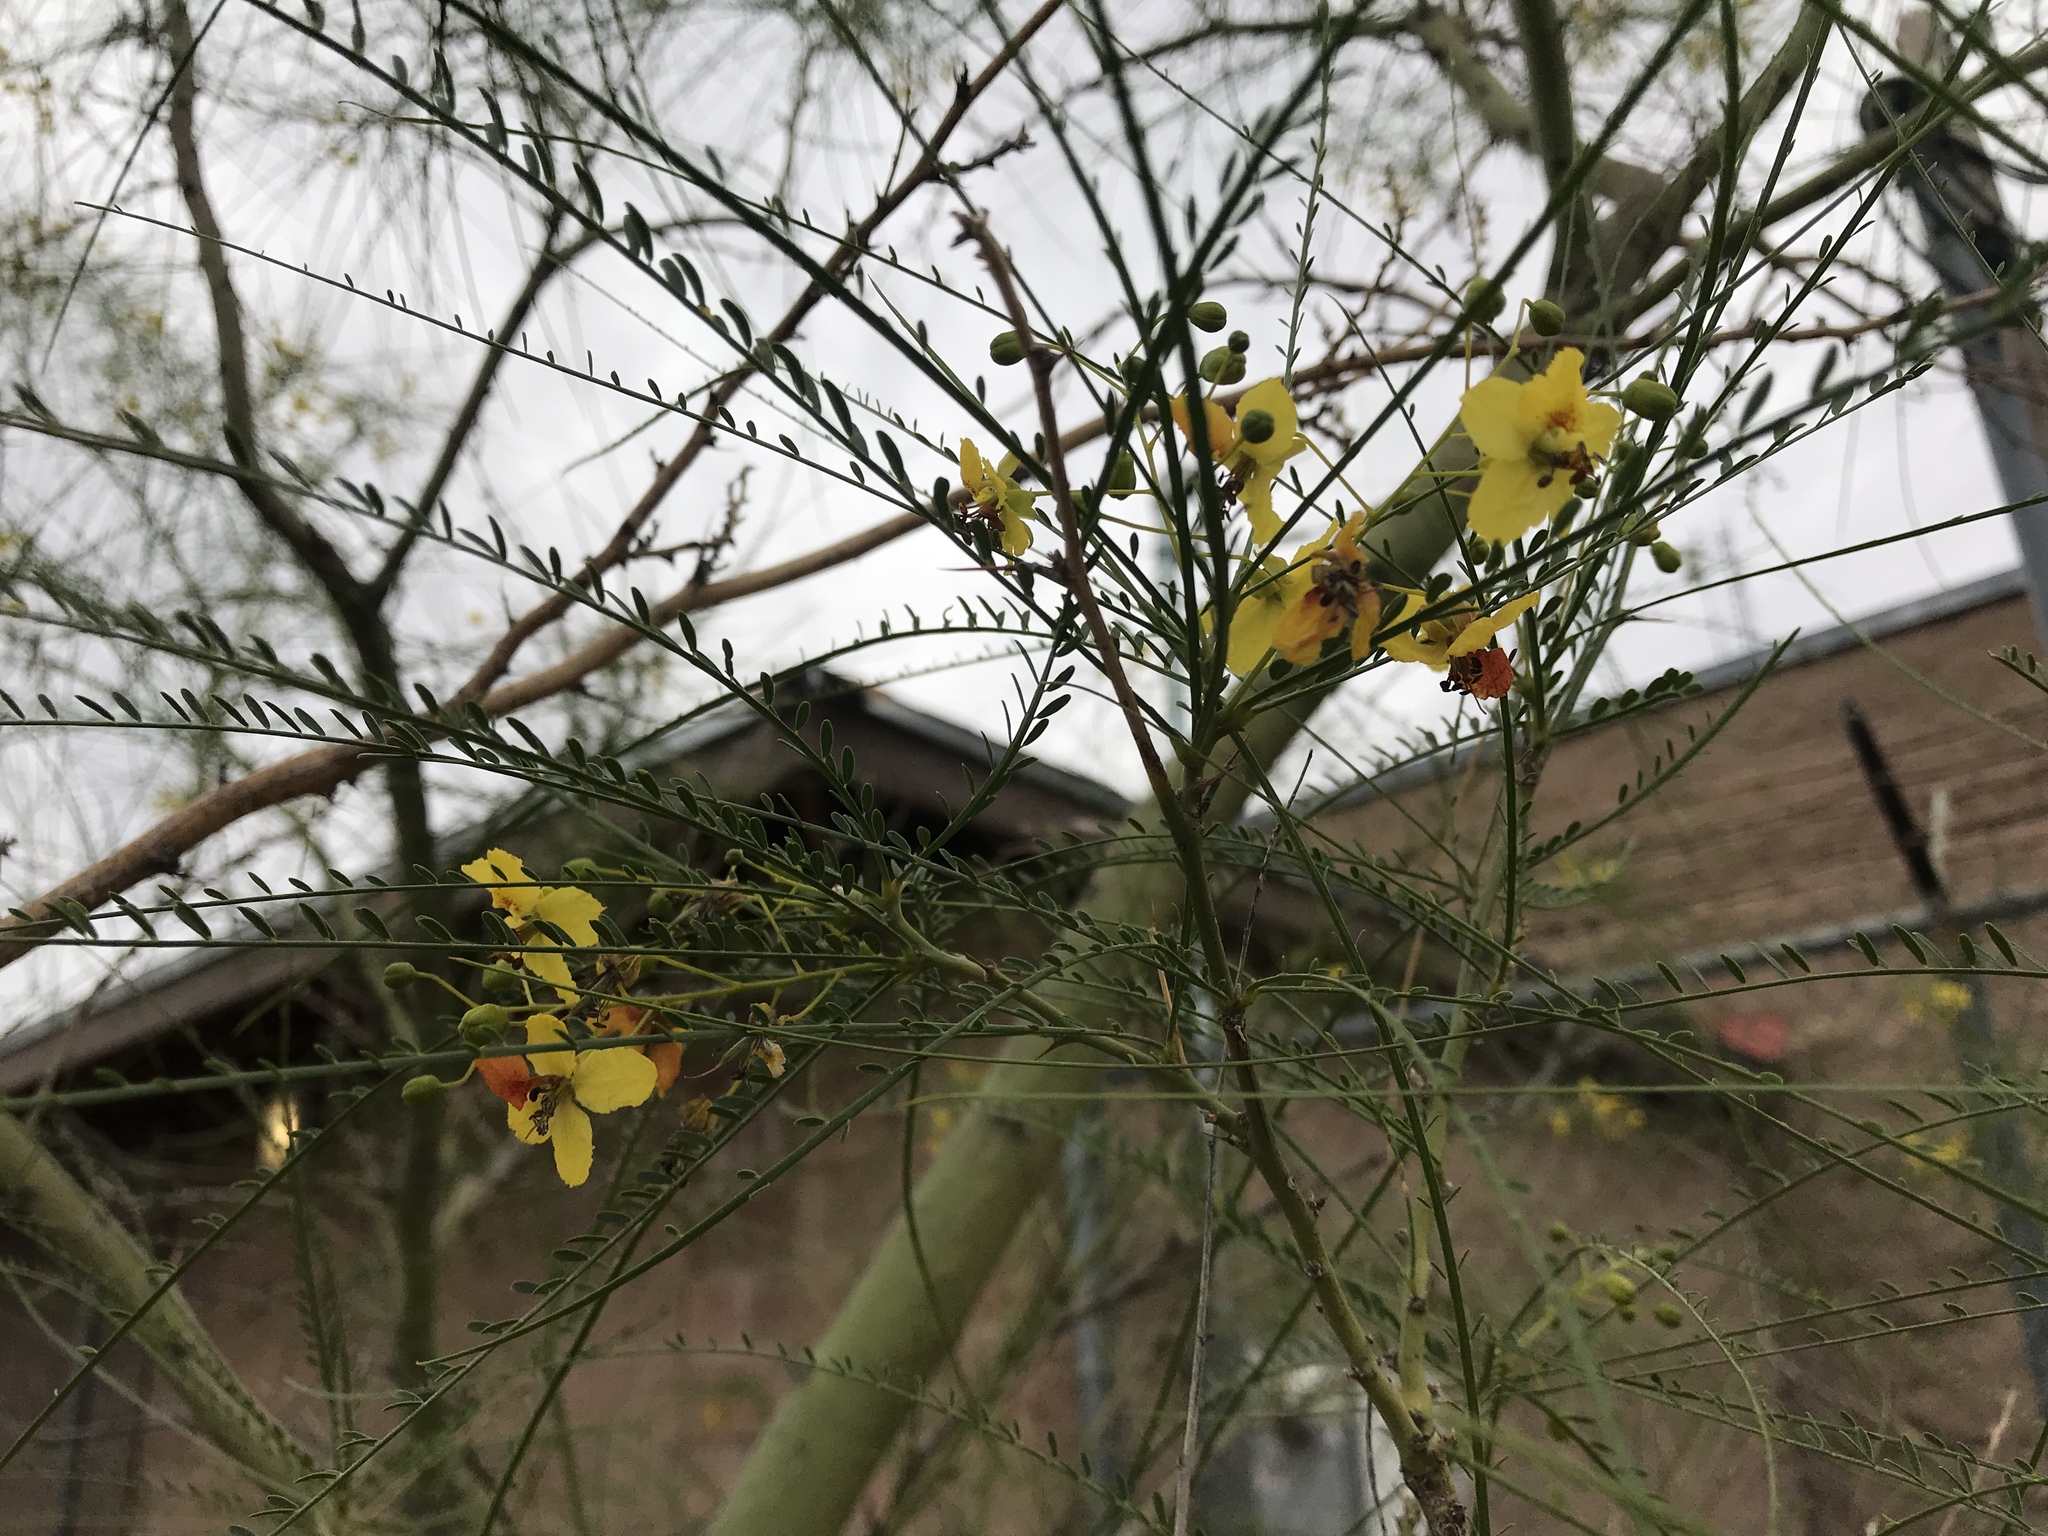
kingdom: Plantae
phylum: Tracheophyta
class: Magnoliopsida
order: Fabales
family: Fabaceae
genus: Parkinsonia
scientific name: Parkinsonia aculeata
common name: Jerusalem thorn
